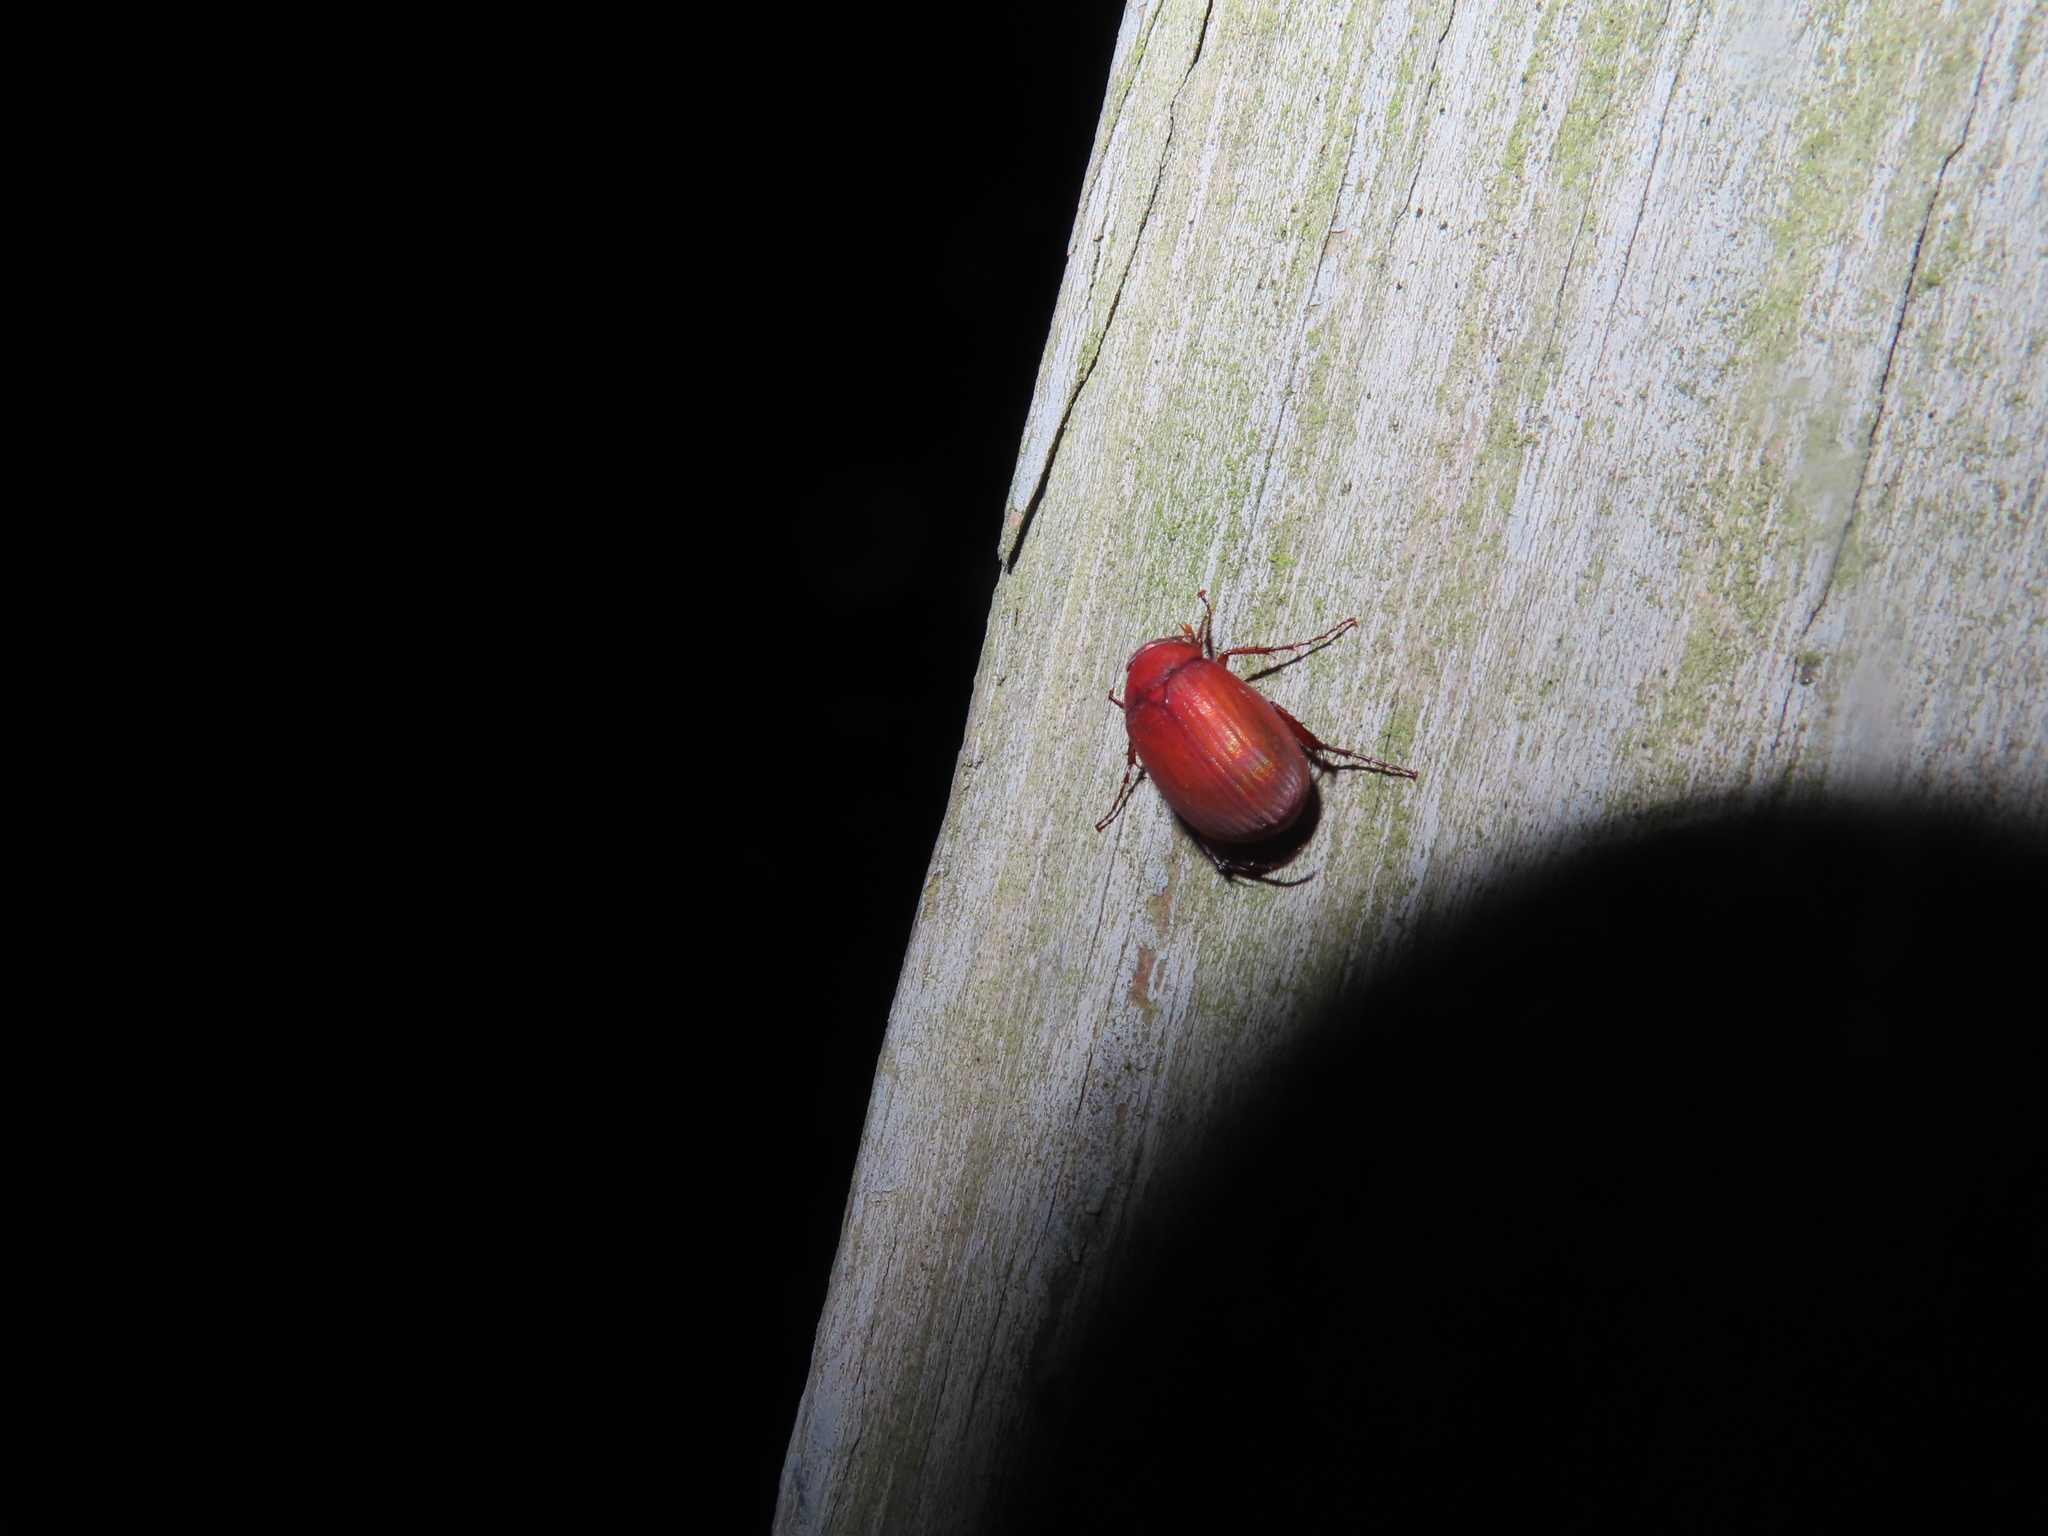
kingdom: Animalia
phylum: Arthropoda
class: Insecta
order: Coleoptera
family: Scarabaeidae
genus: Maladera
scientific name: Maladera formosae
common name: Asiatic garden beetle
